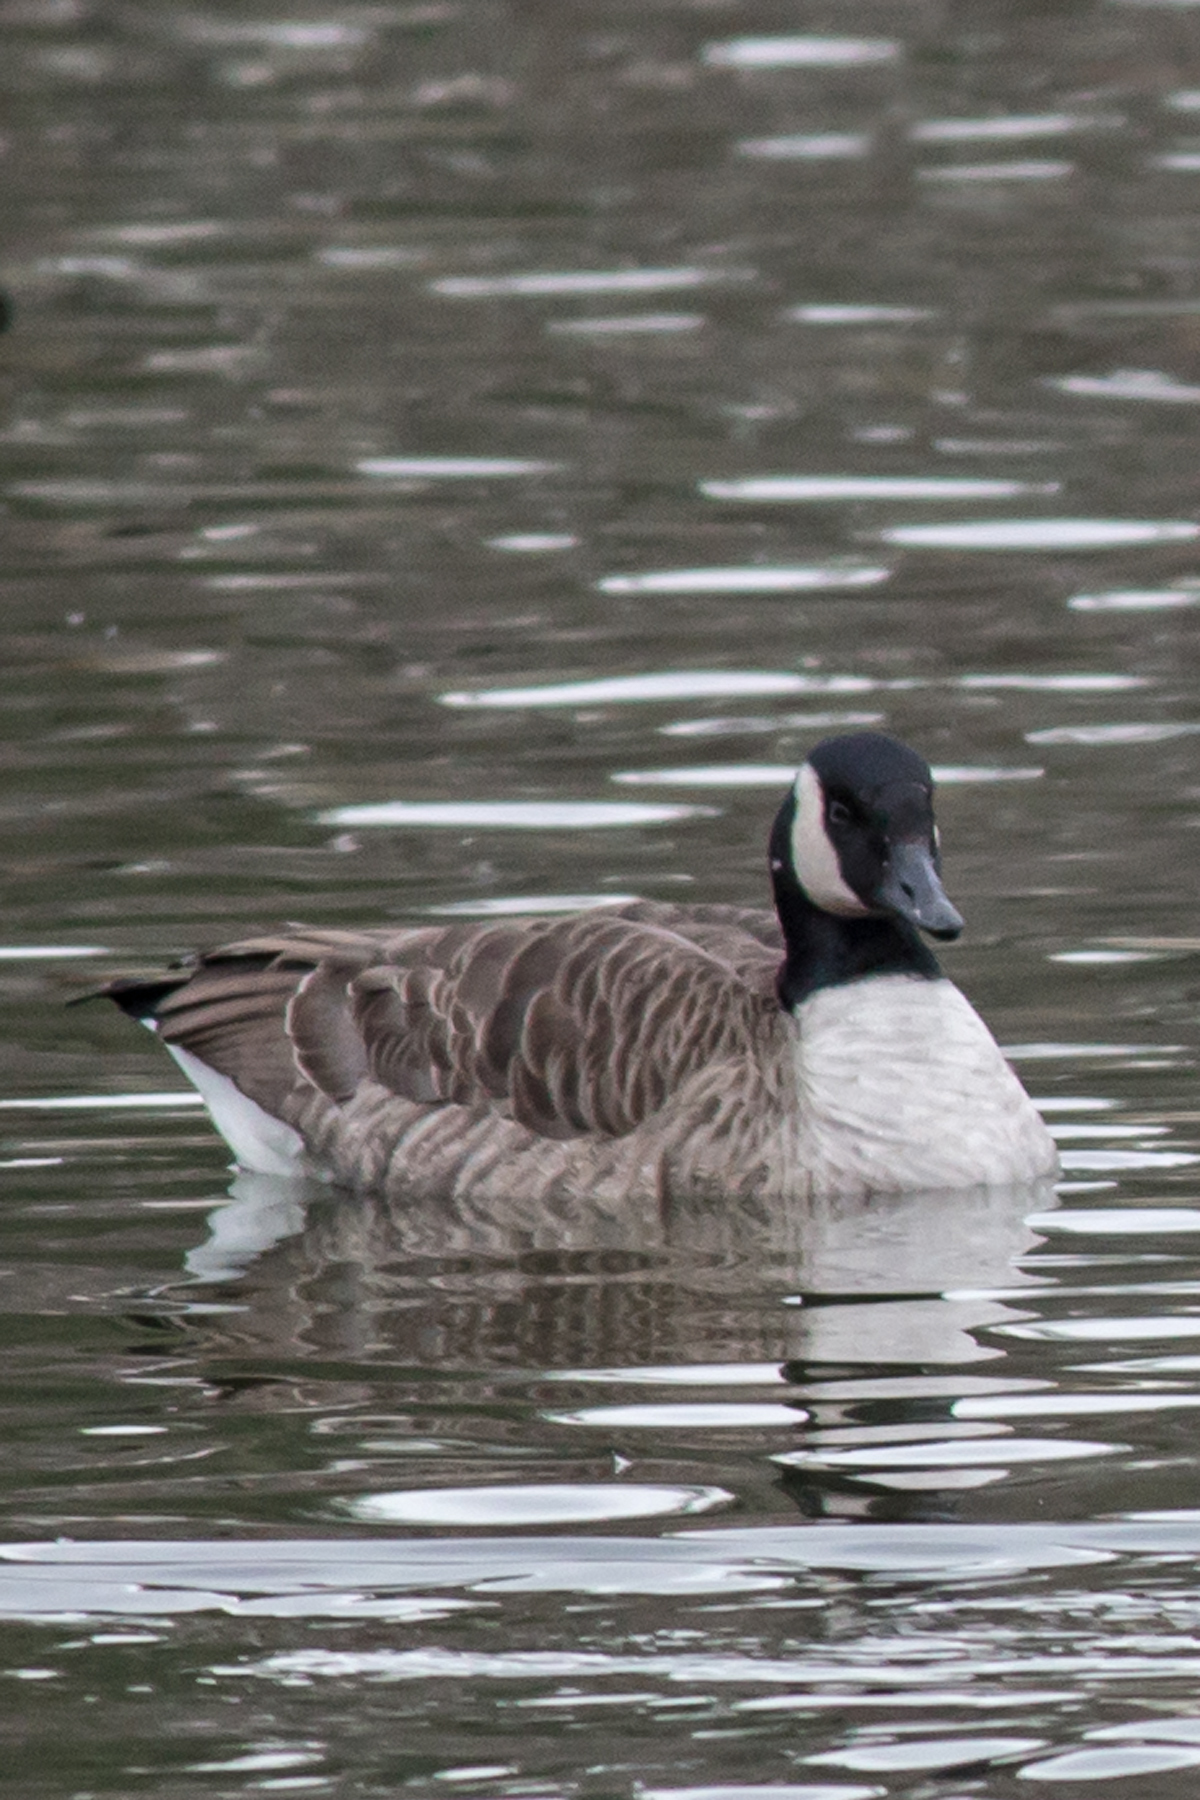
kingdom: Animalia
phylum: Chordata
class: Aves
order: Anseriformes
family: Anatidae
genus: Branta
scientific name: Branta canadensis
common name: Canada goose
